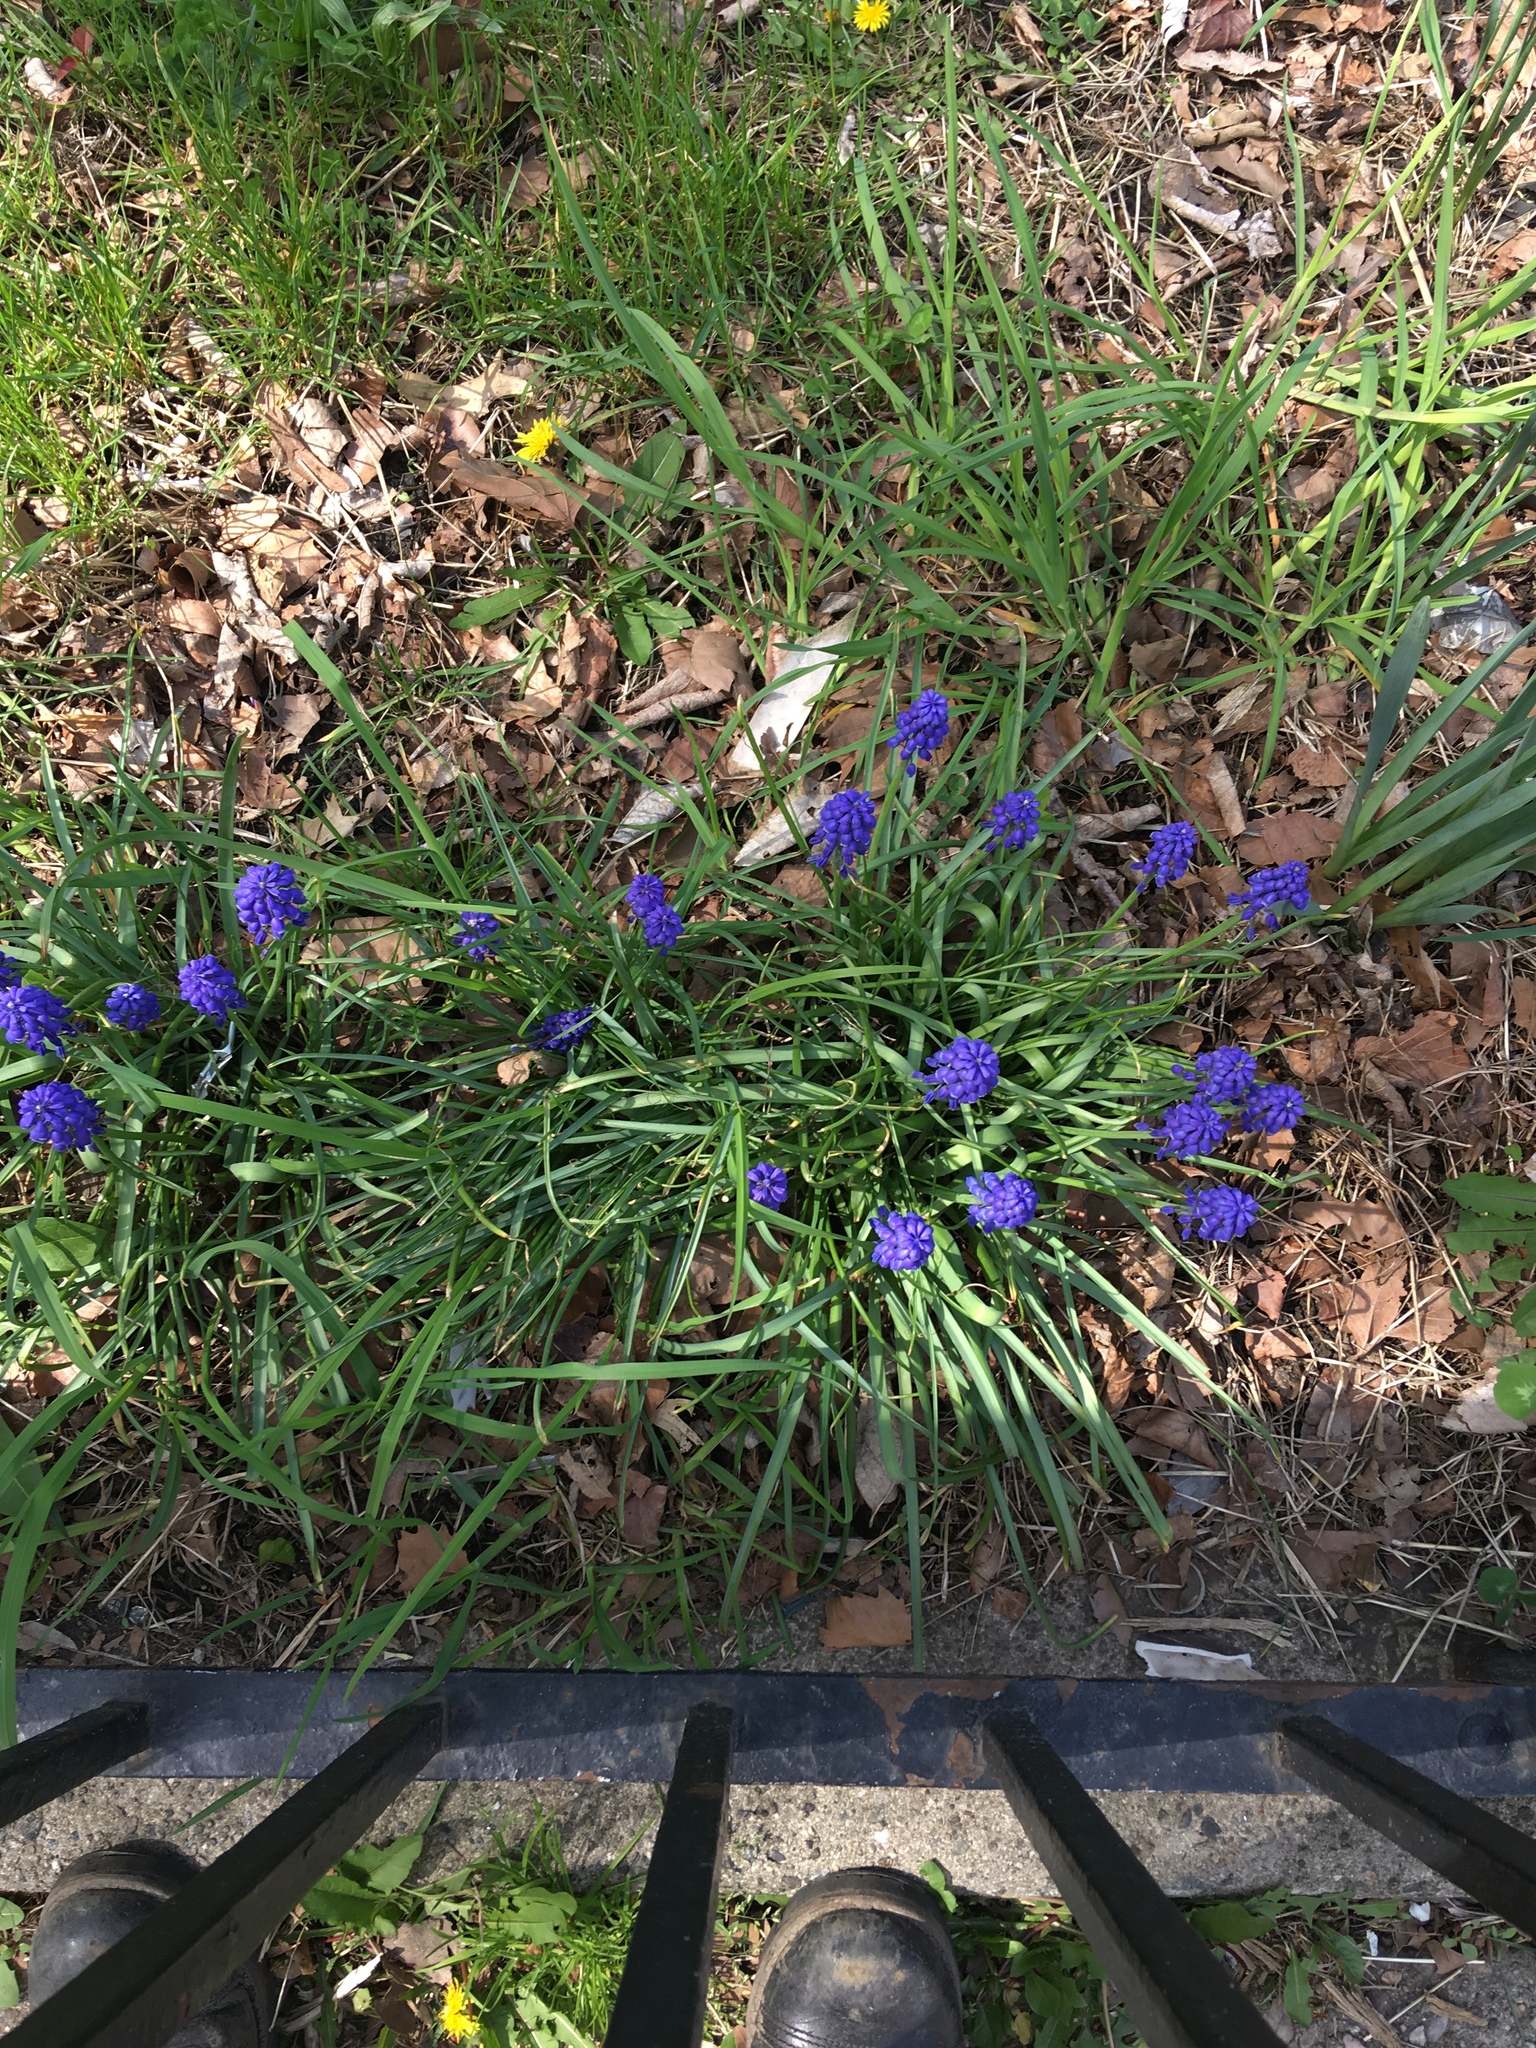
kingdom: Plantae
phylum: Tracheophyta
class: Liliopsida
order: Asparagales
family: Asparagaceae
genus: Muscari
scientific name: Muscari armeniacum
